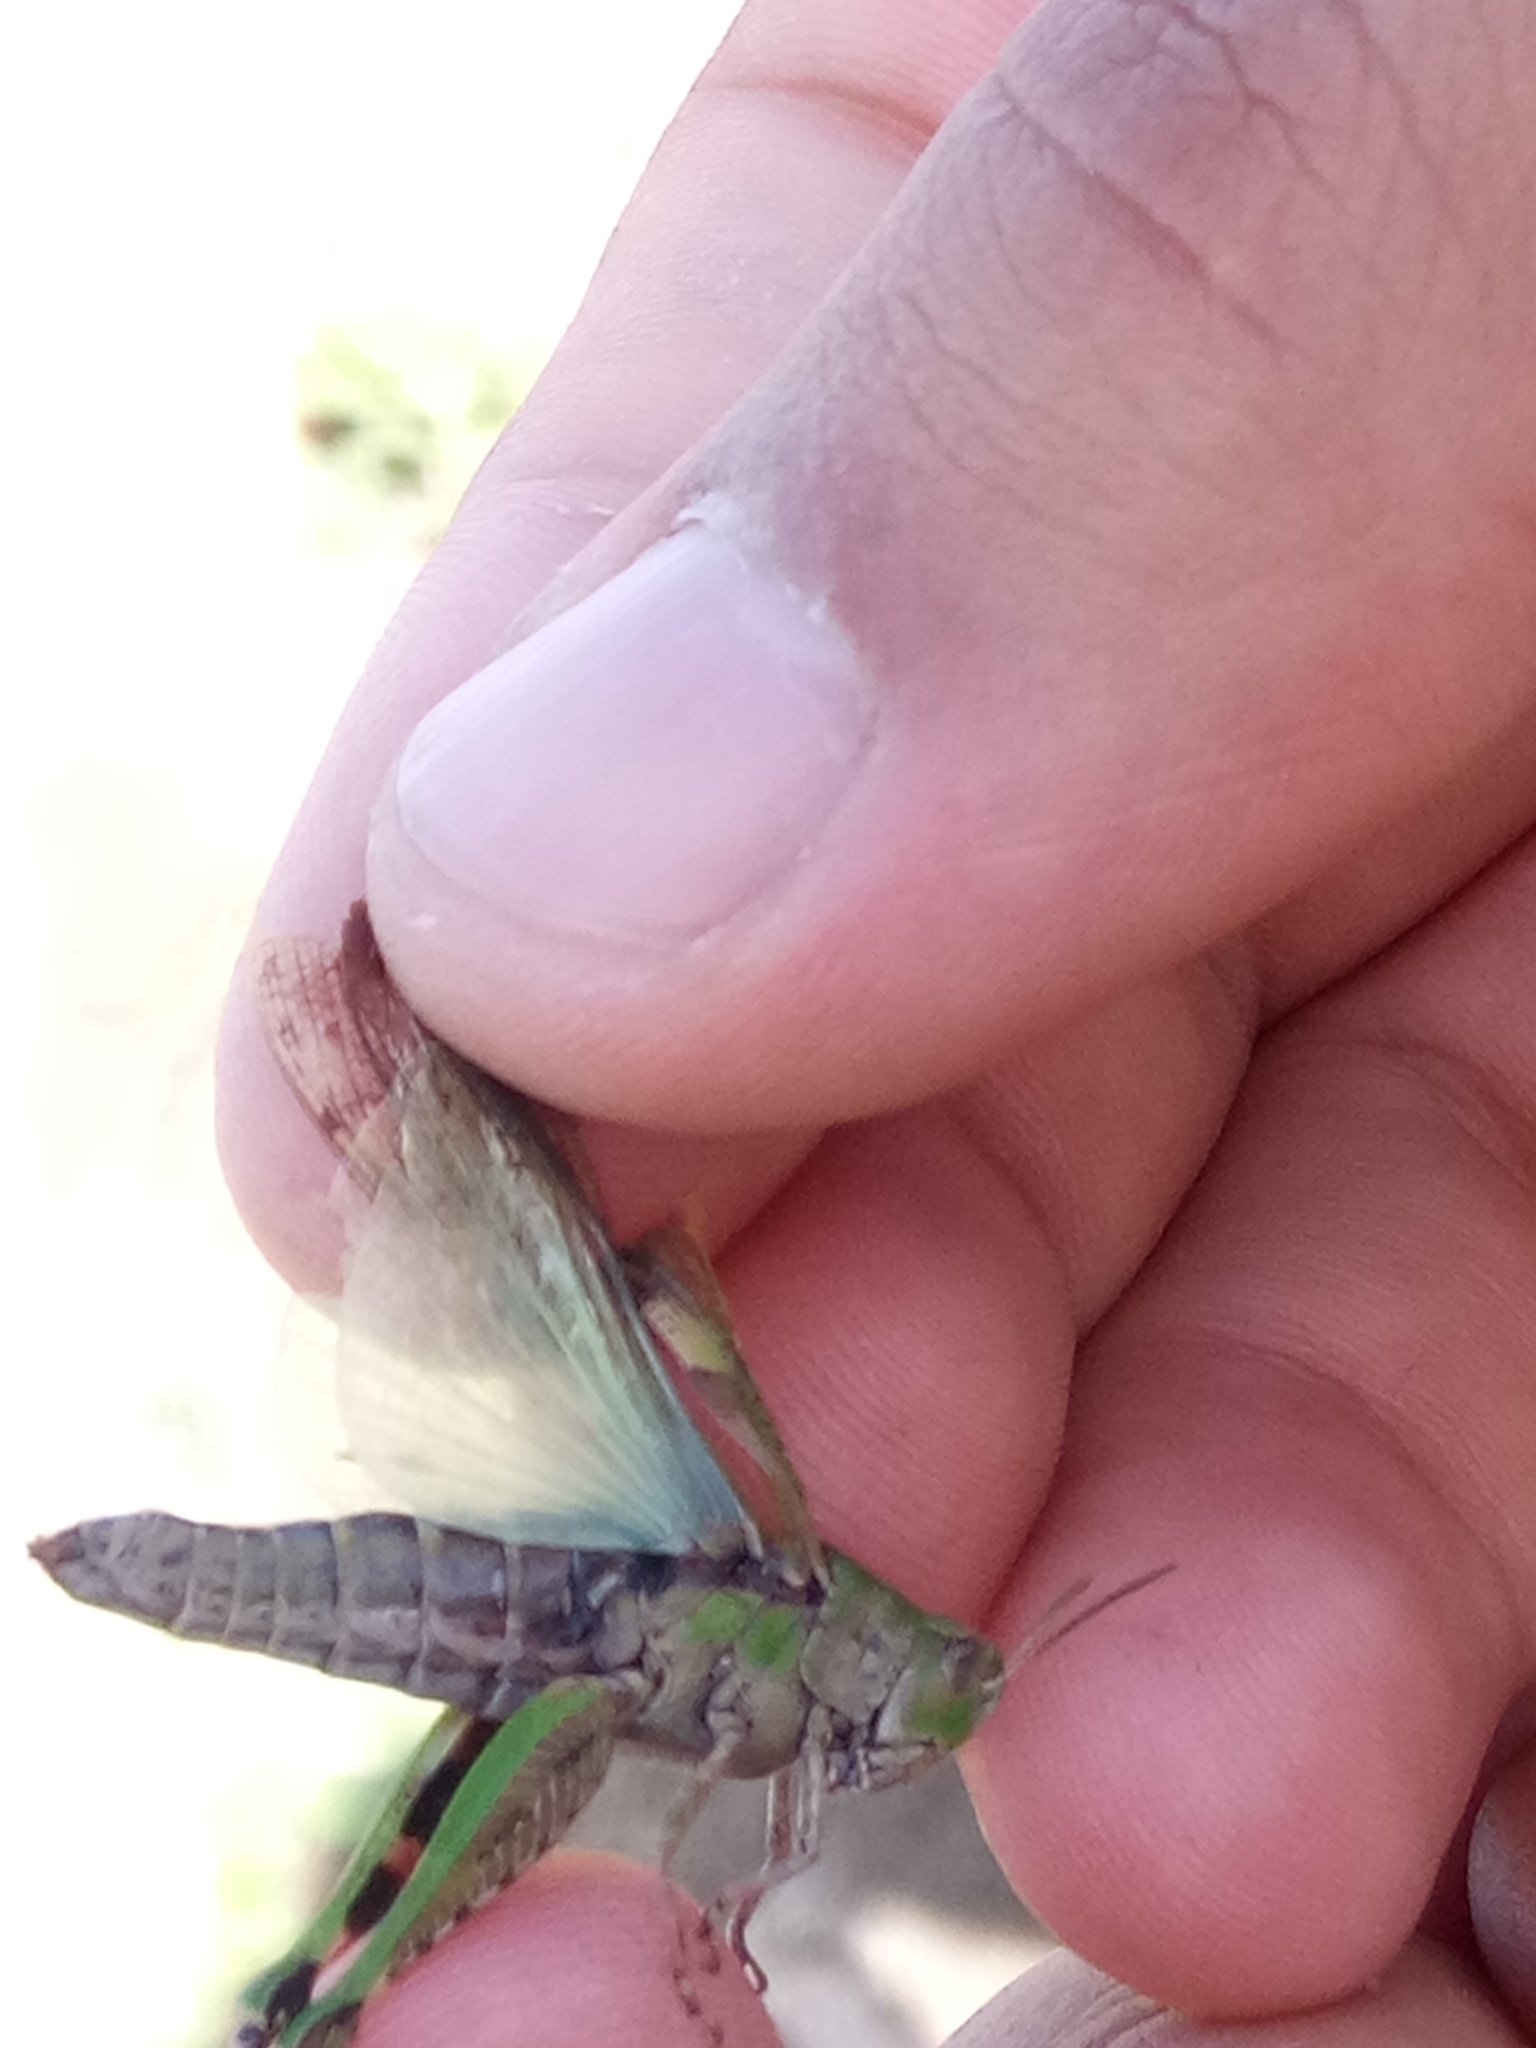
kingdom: Animalia
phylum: Arthropoda
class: Insecta
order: Orthoptera
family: Acrididae
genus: Aiolopus
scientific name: Aiolopus strepens
